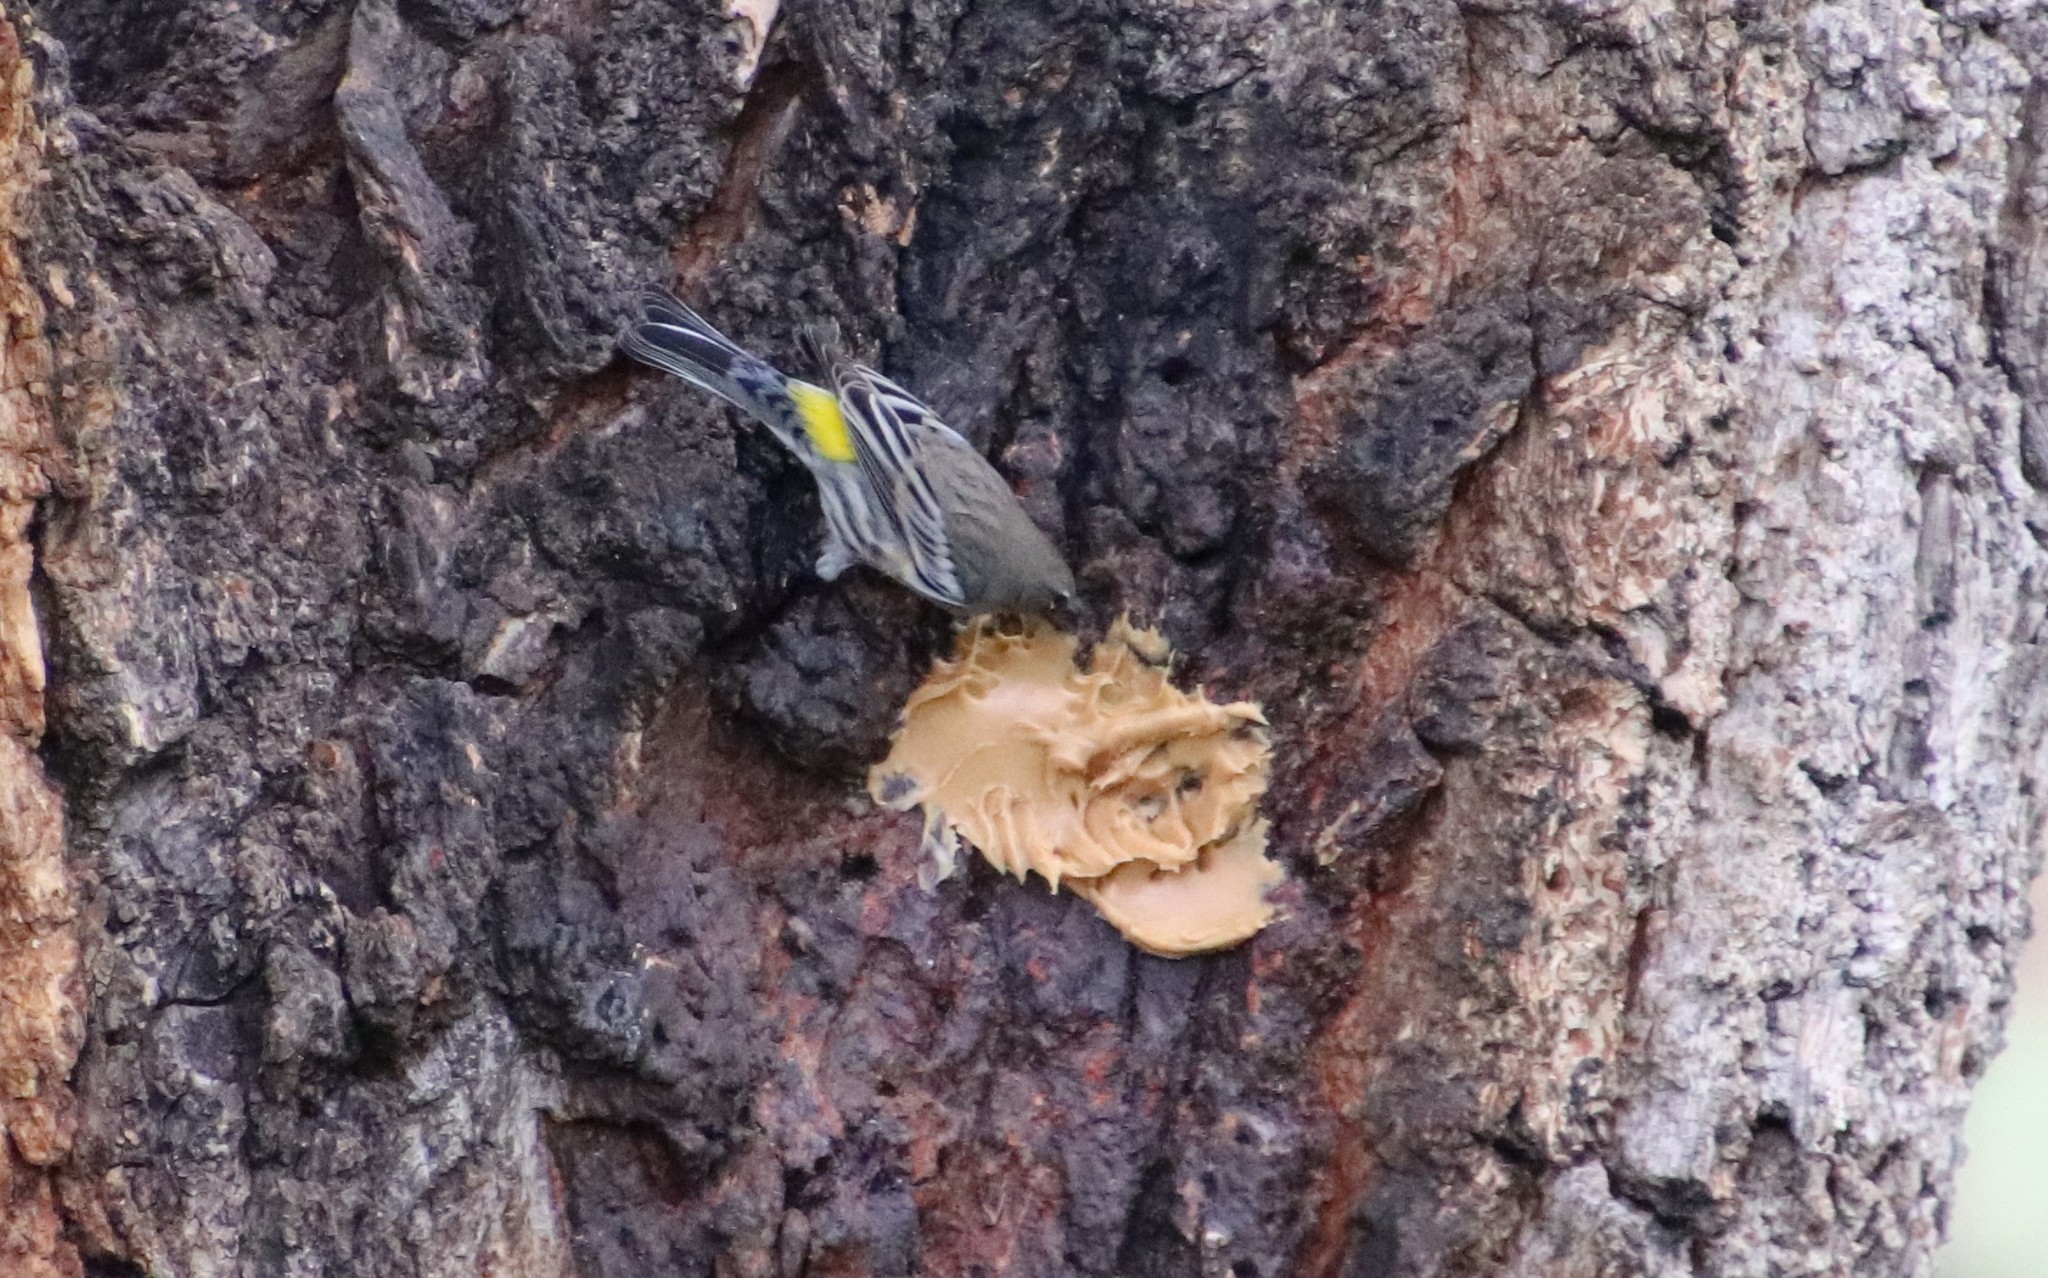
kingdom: Animalia
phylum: Chordata
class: Aves
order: Passeriformes
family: Parulidae
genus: Setophaga
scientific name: Setophaga coronata
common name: Myrtle warbler
